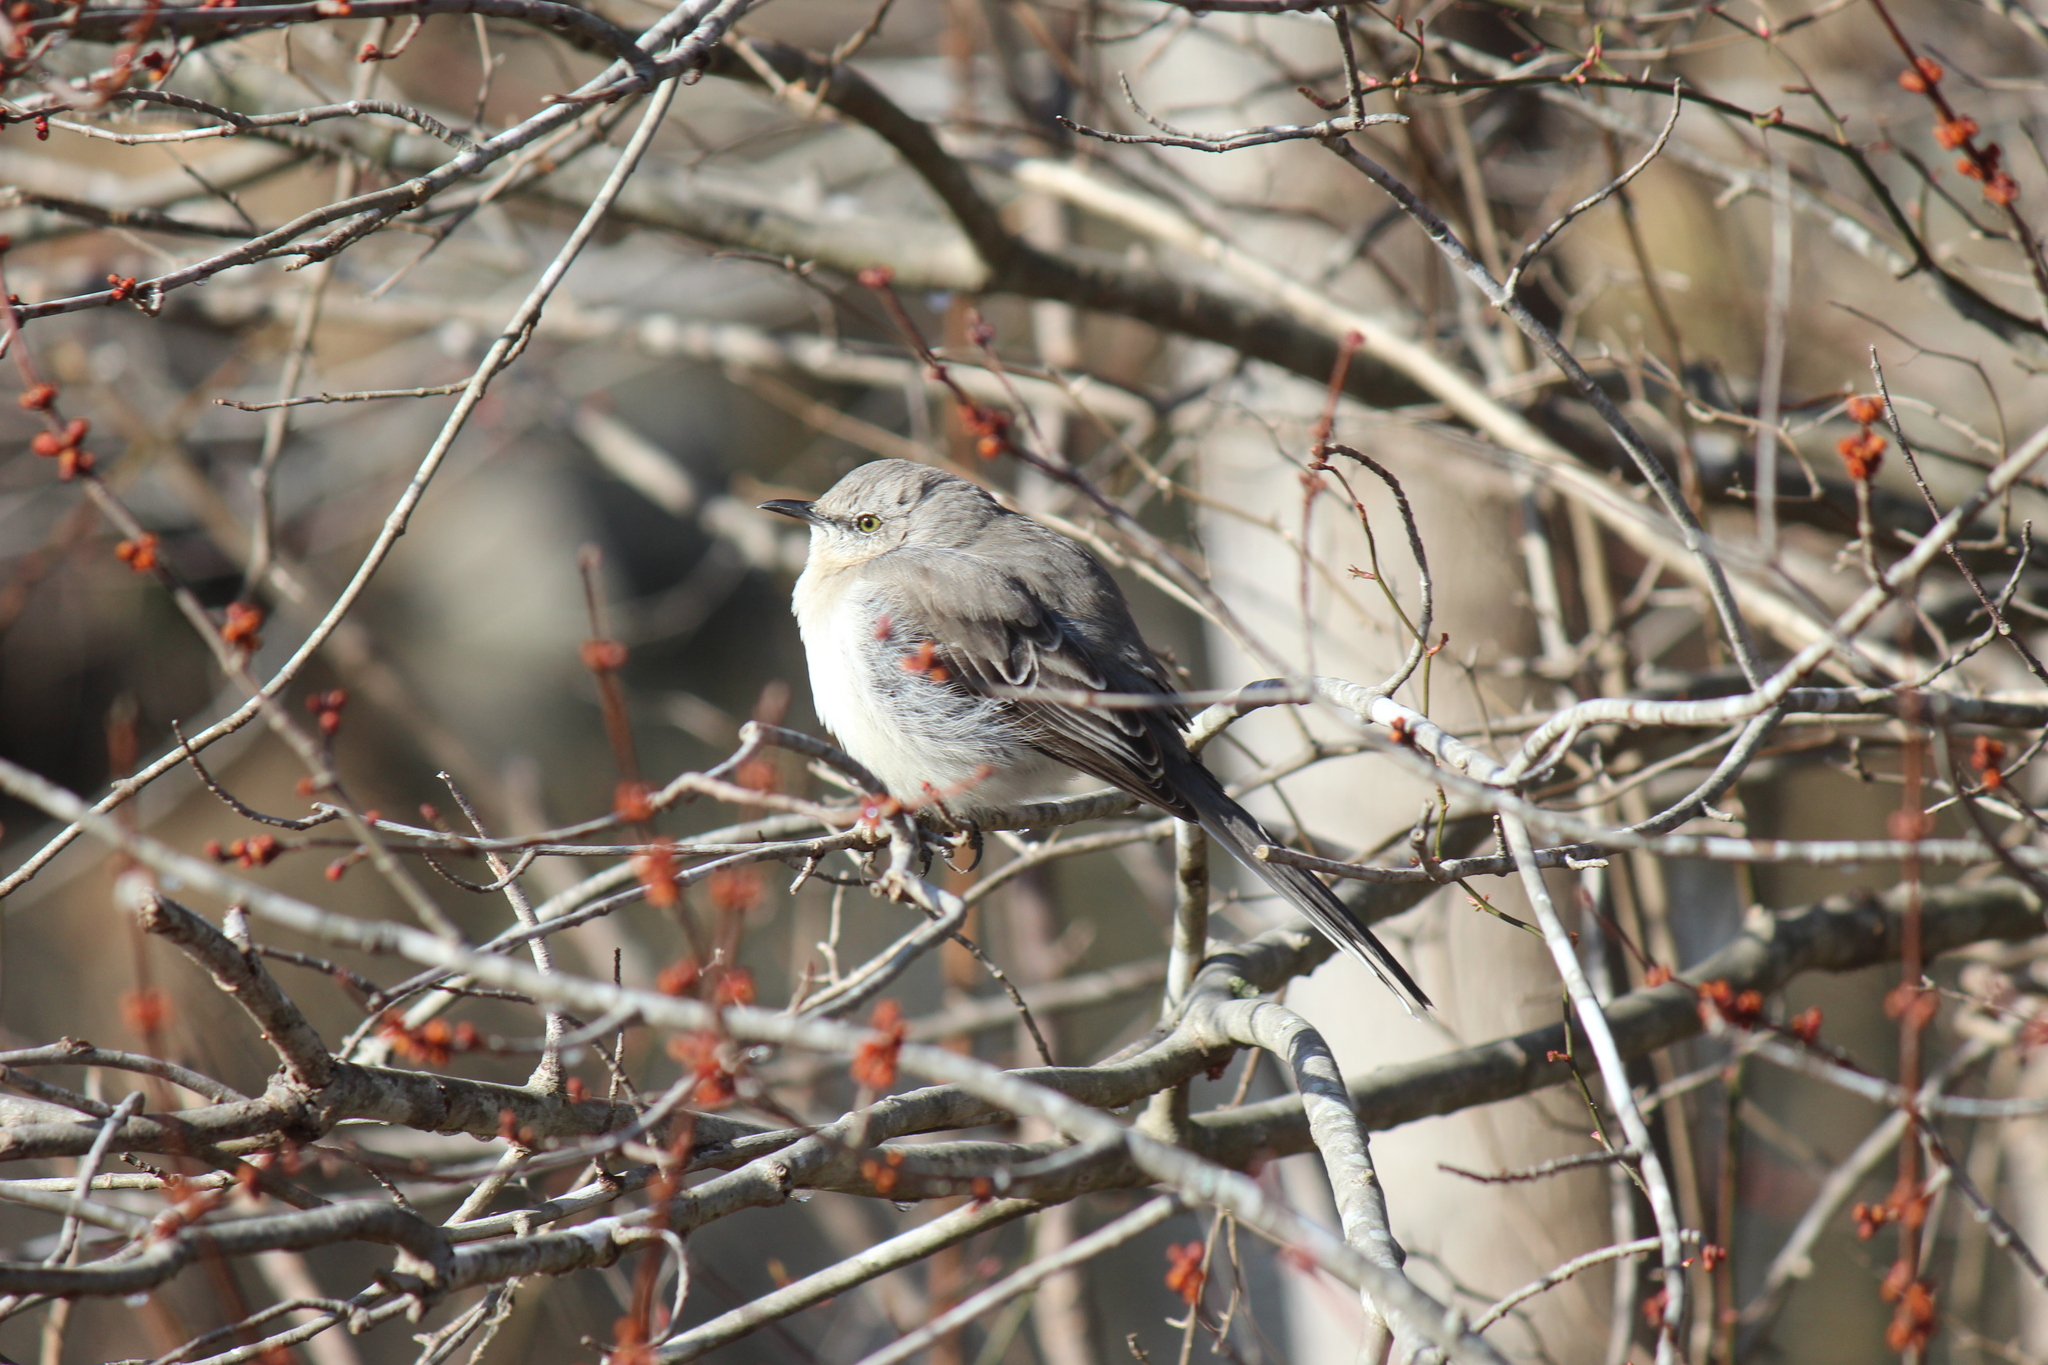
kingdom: Animalia
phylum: Chordata
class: Aves
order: Passeriformes
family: Mimidae
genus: Mimus
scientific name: Mimus polyglottos
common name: Northern mockingbird
